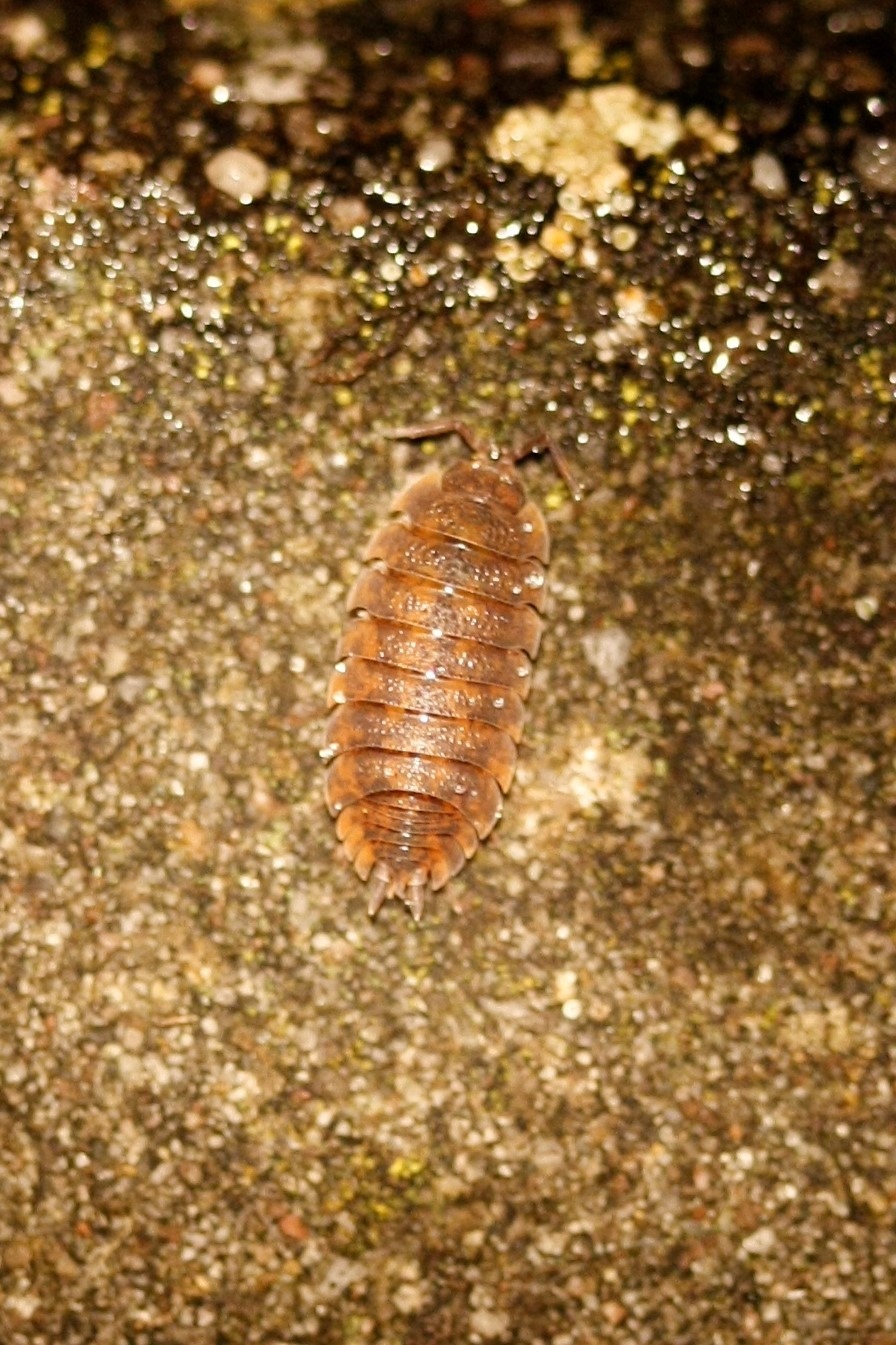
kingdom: Animalia
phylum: Arthropoda
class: Malacostraca
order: Isopoda
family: Porcellionidae
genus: Porcellio
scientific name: Porcellio scaber
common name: Common rough woodlouse
